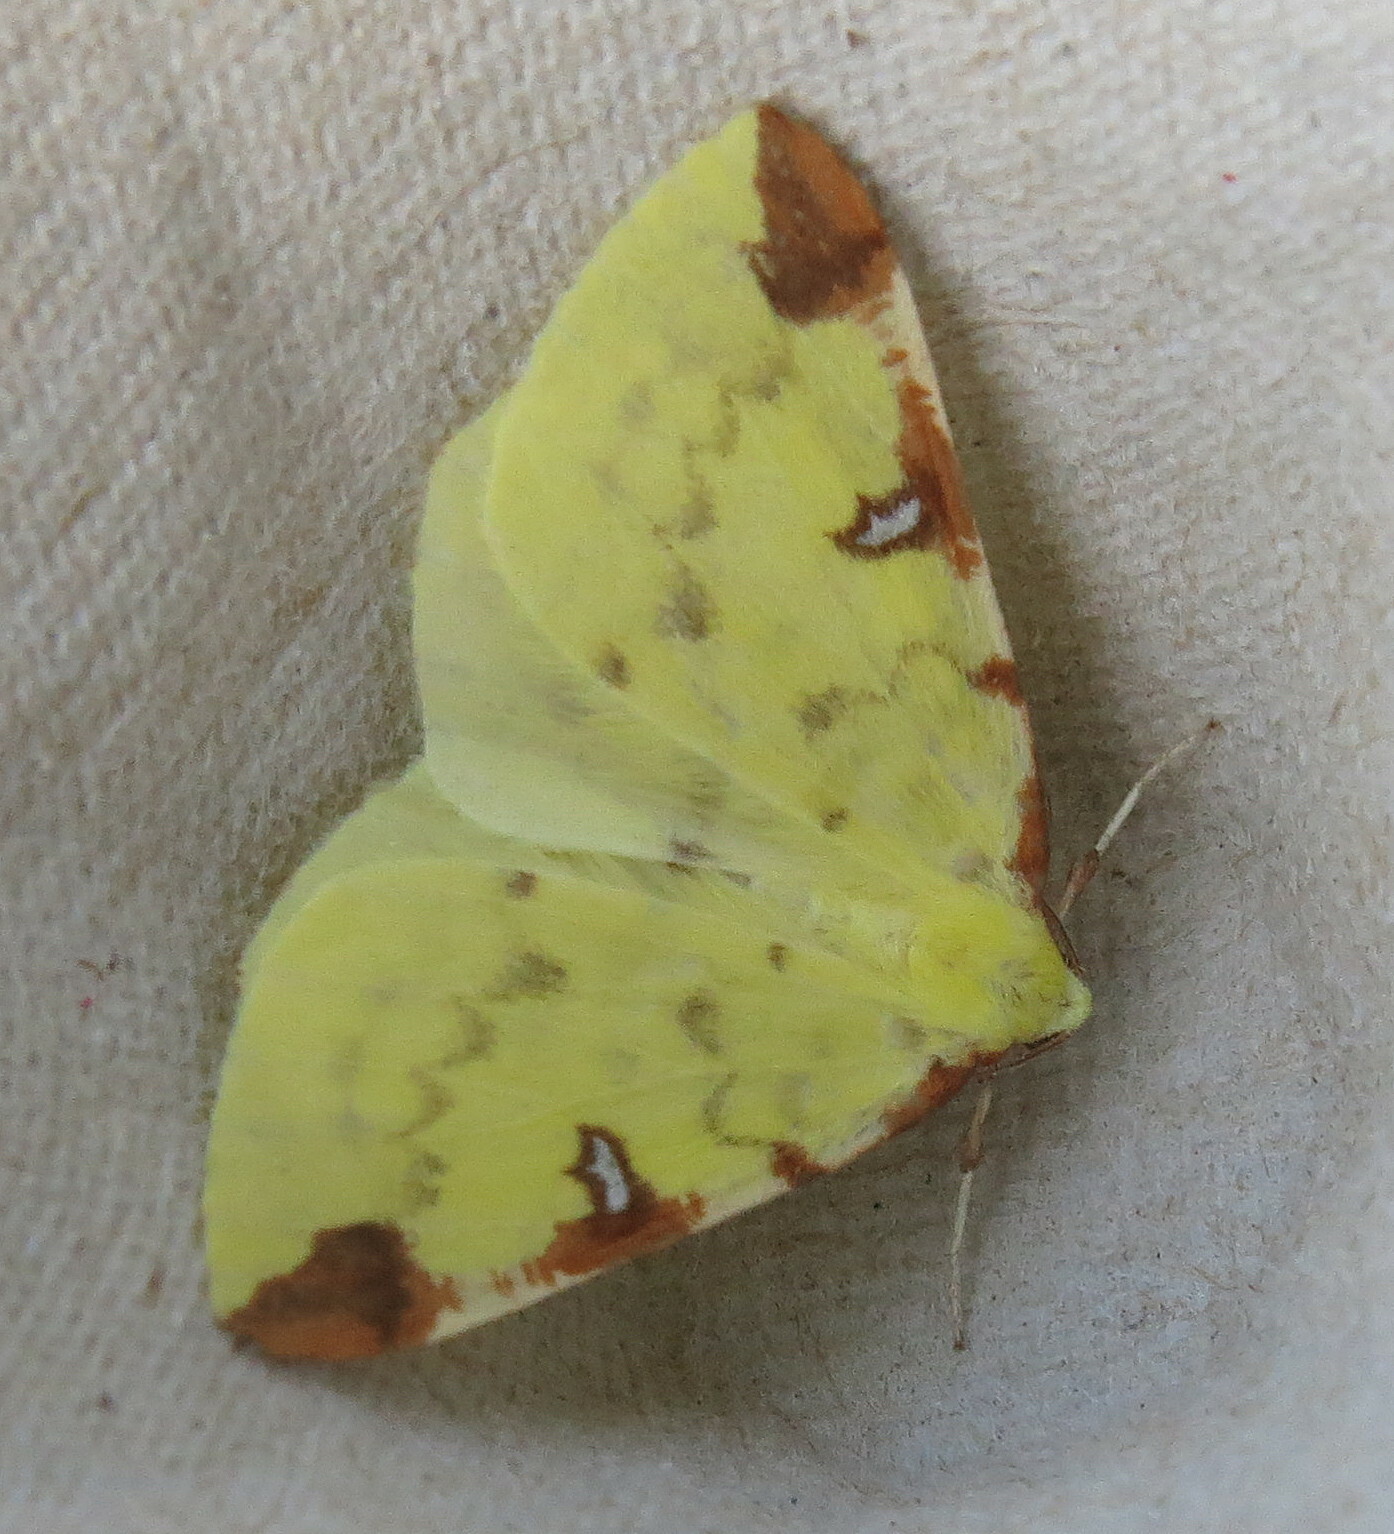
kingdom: Animalia
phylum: Arthropoda
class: Insecta
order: Lepidoptera
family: Geometridae
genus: Opisthograptis
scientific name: Opisthograptis luteolata
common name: Brimstone moth
